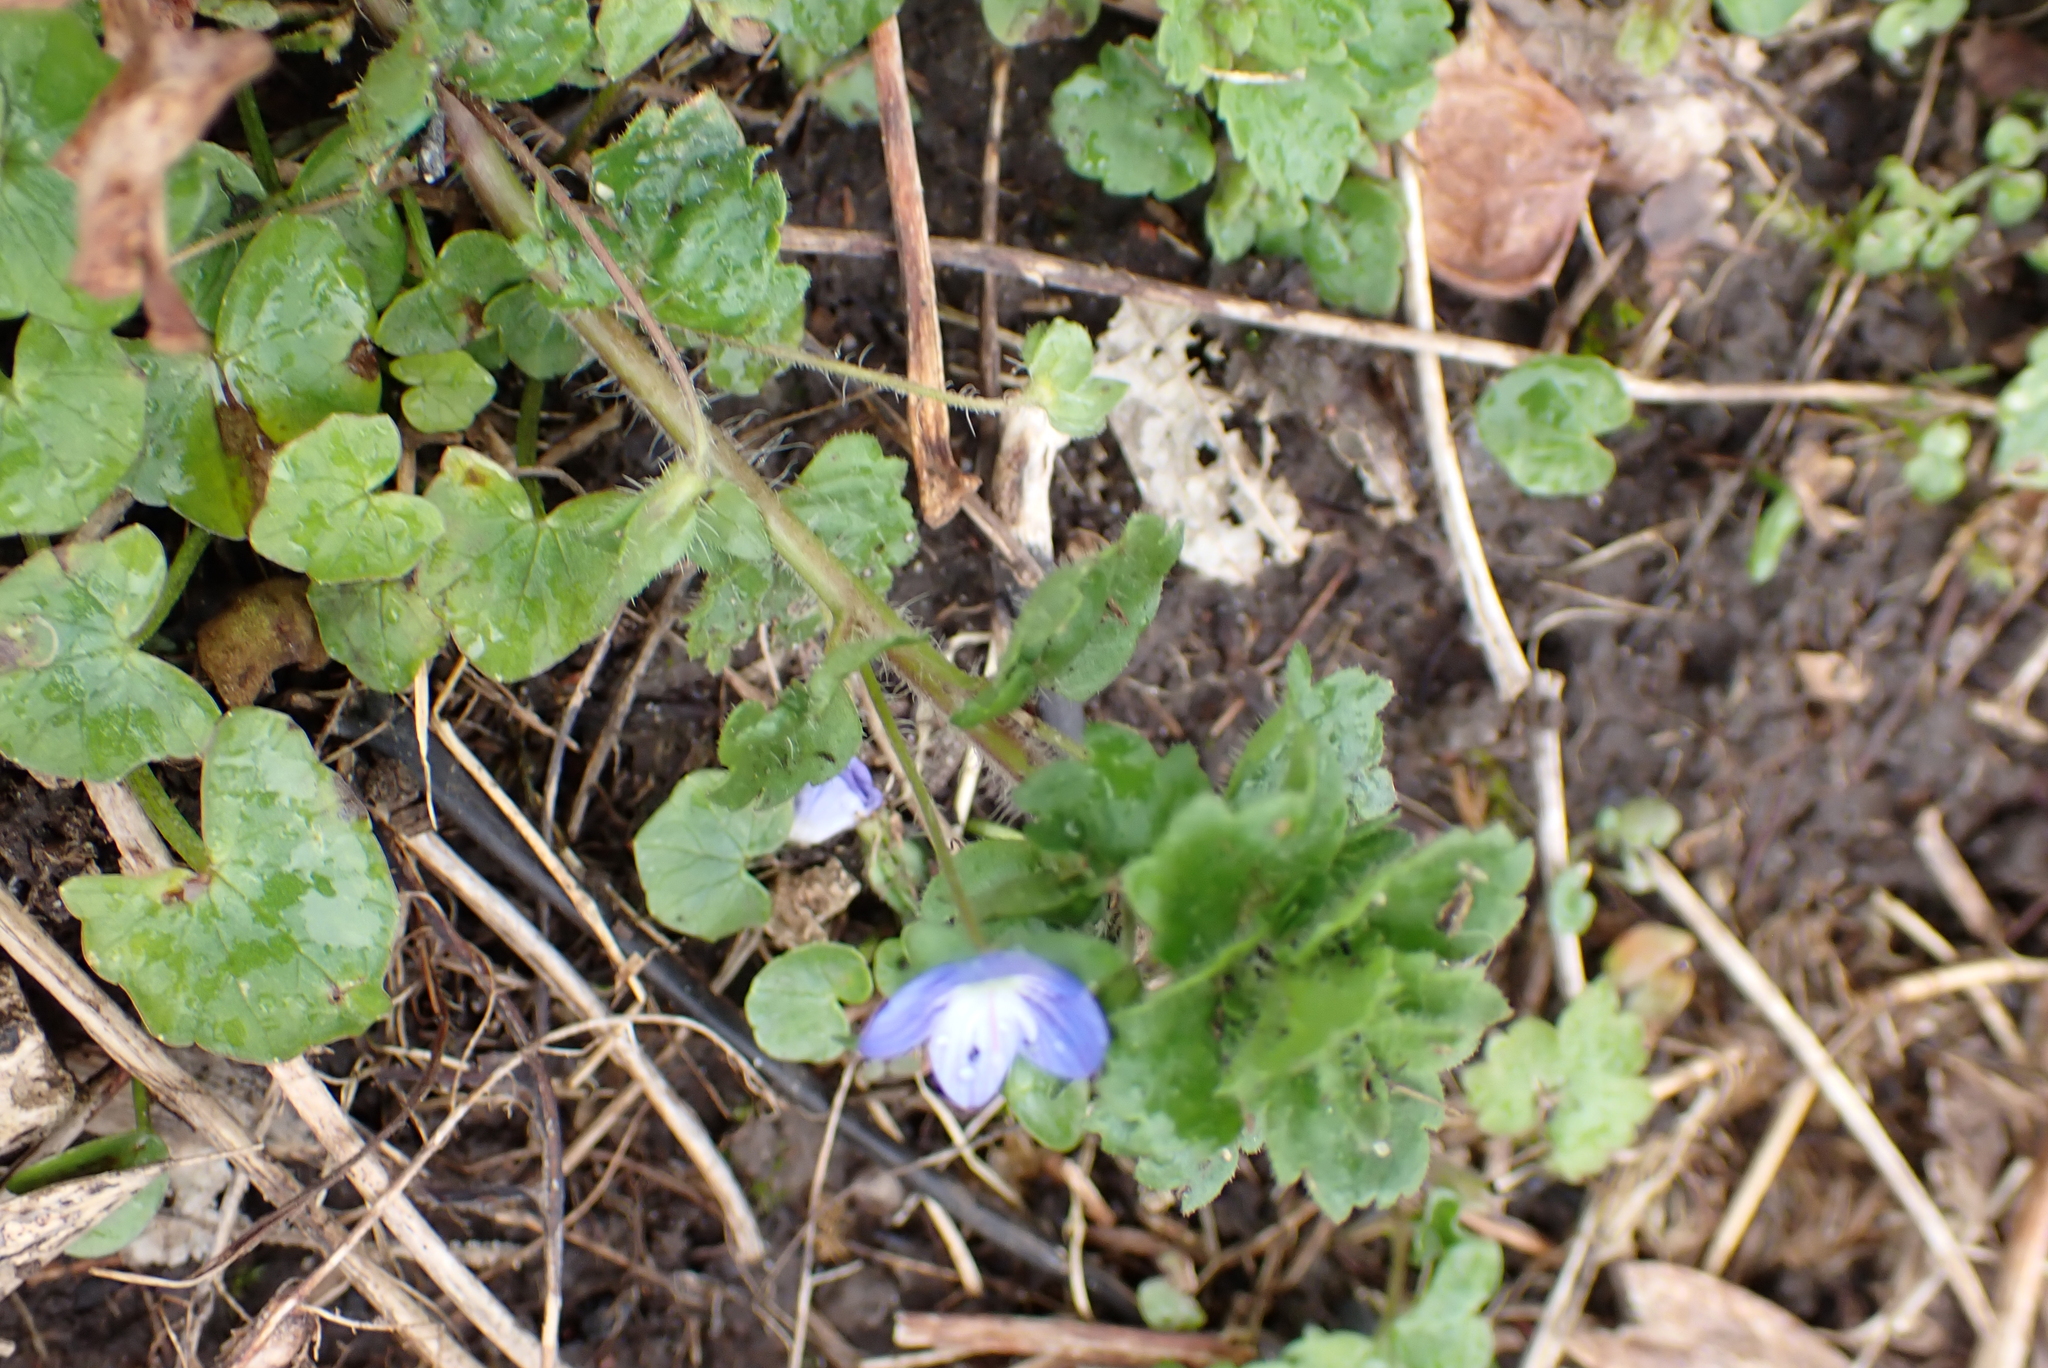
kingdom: Plantae
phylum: Tracheophyta
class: Magnoliopsida
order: Lamiales
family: Plantaginaceae
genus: Veronica
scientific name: Veronica persica
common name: Common field-speedwell
